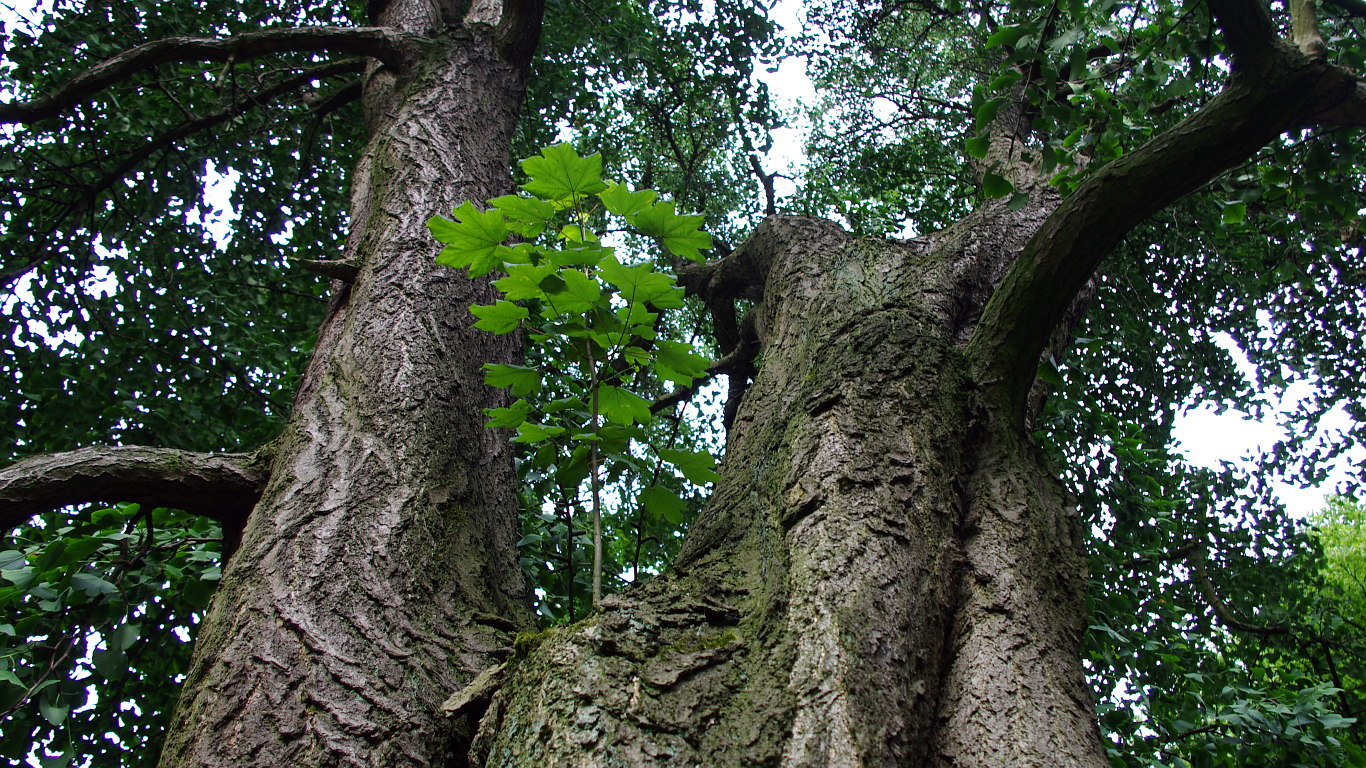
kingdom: Plantae
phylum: Tracheophyta
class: Magnoliopsida
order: Sapindales
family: Sapindaceae
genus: Acer
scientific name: Acer platanoides
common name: Norway maple
